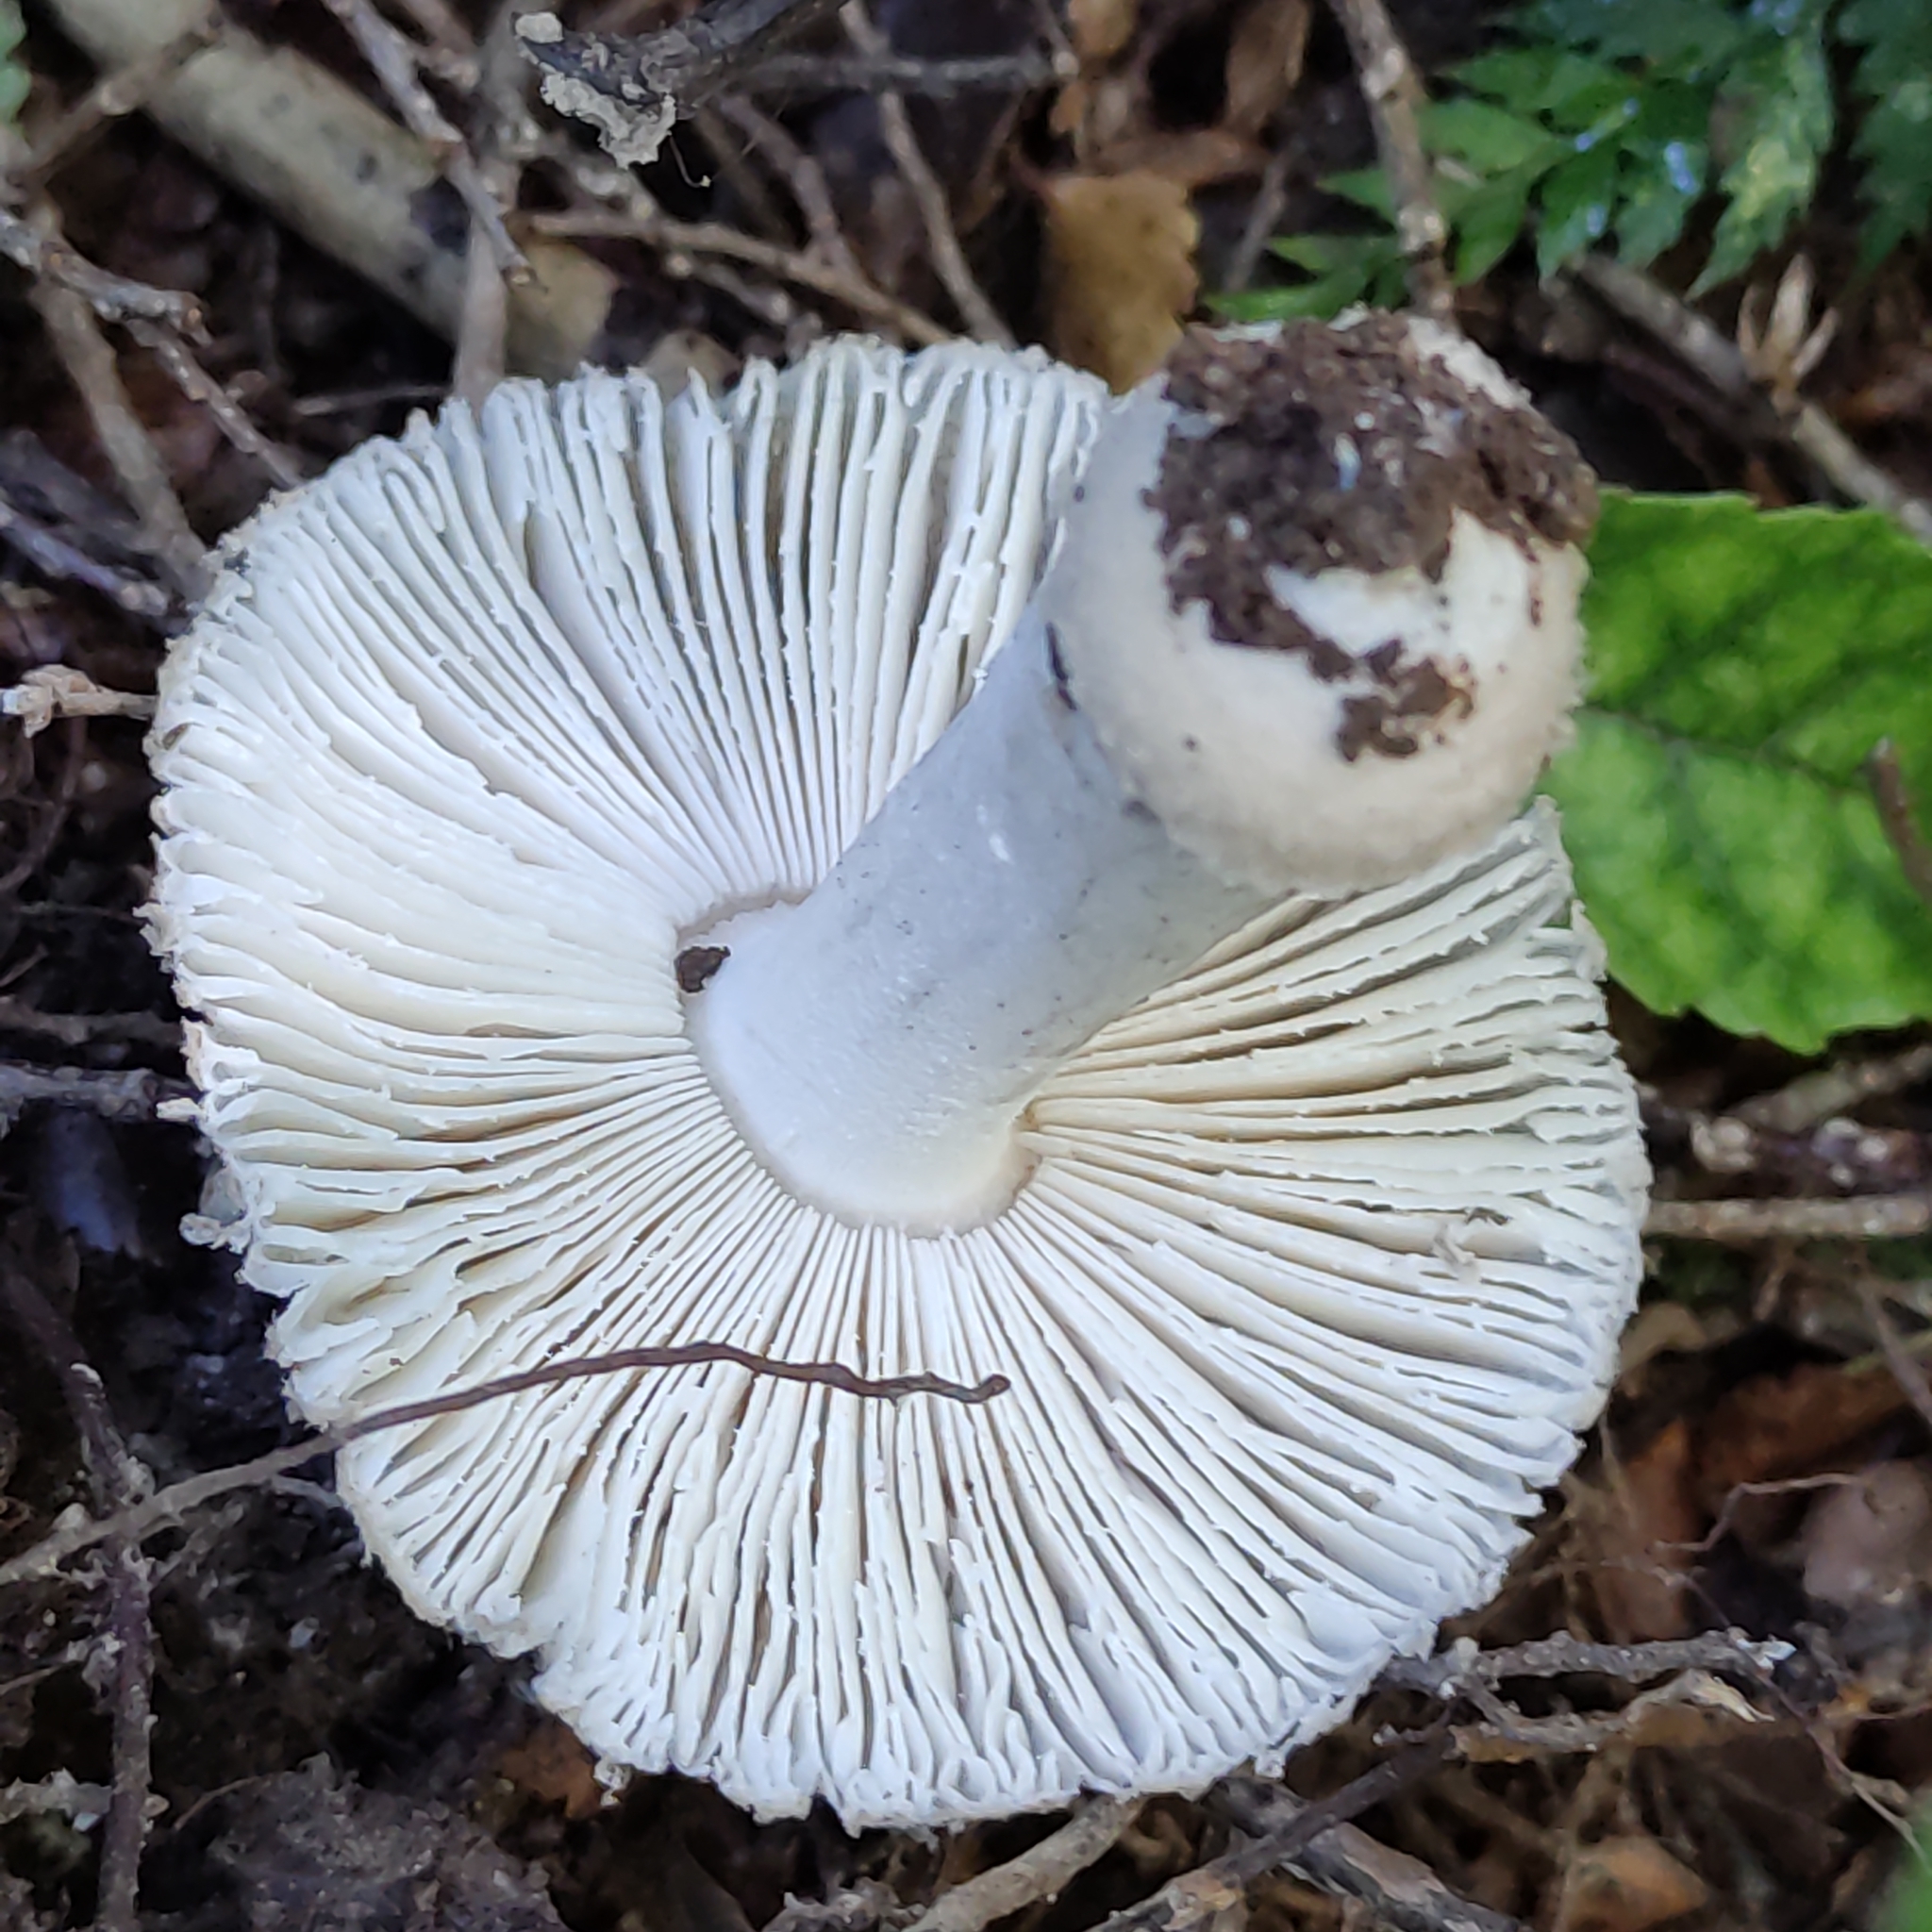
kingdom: Fungi
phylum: Basidiomycota
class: Agaricomycetes
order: Agaricales
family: Amanitaceae
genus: Amanita
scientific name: Amanita nehuta
